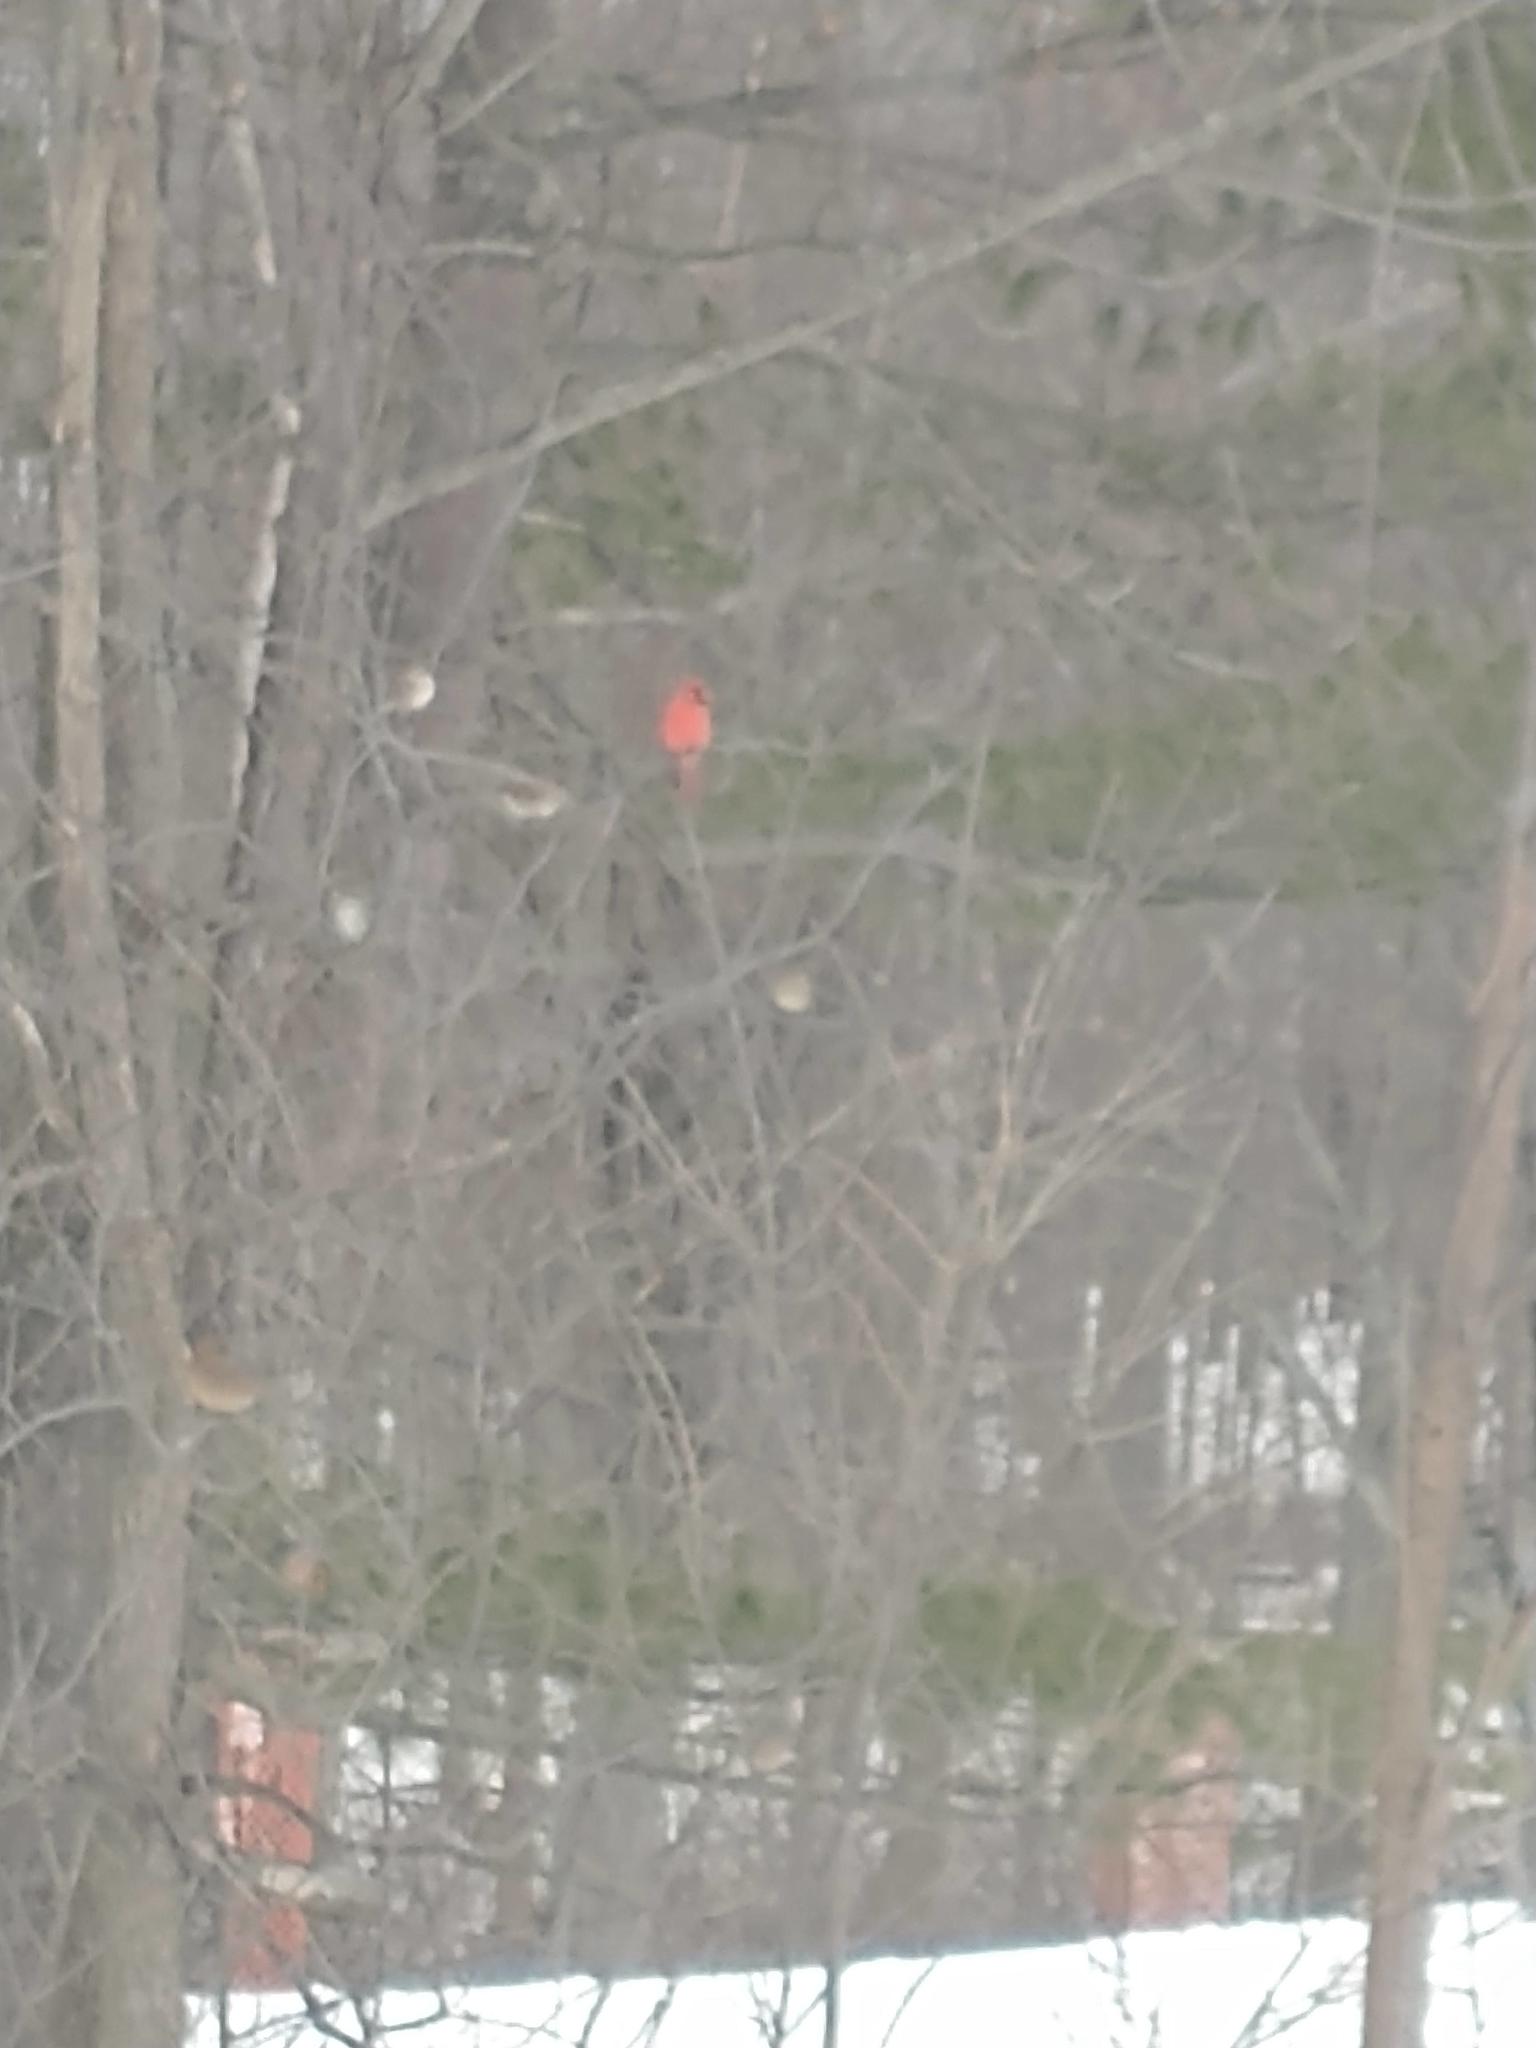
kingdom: Animalia
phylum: Chordata
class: Aves
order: Passeriformes
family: Cardinalidae
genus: Cardinalis
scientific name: Cardinalis cardinalis
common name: Northern cardinal
